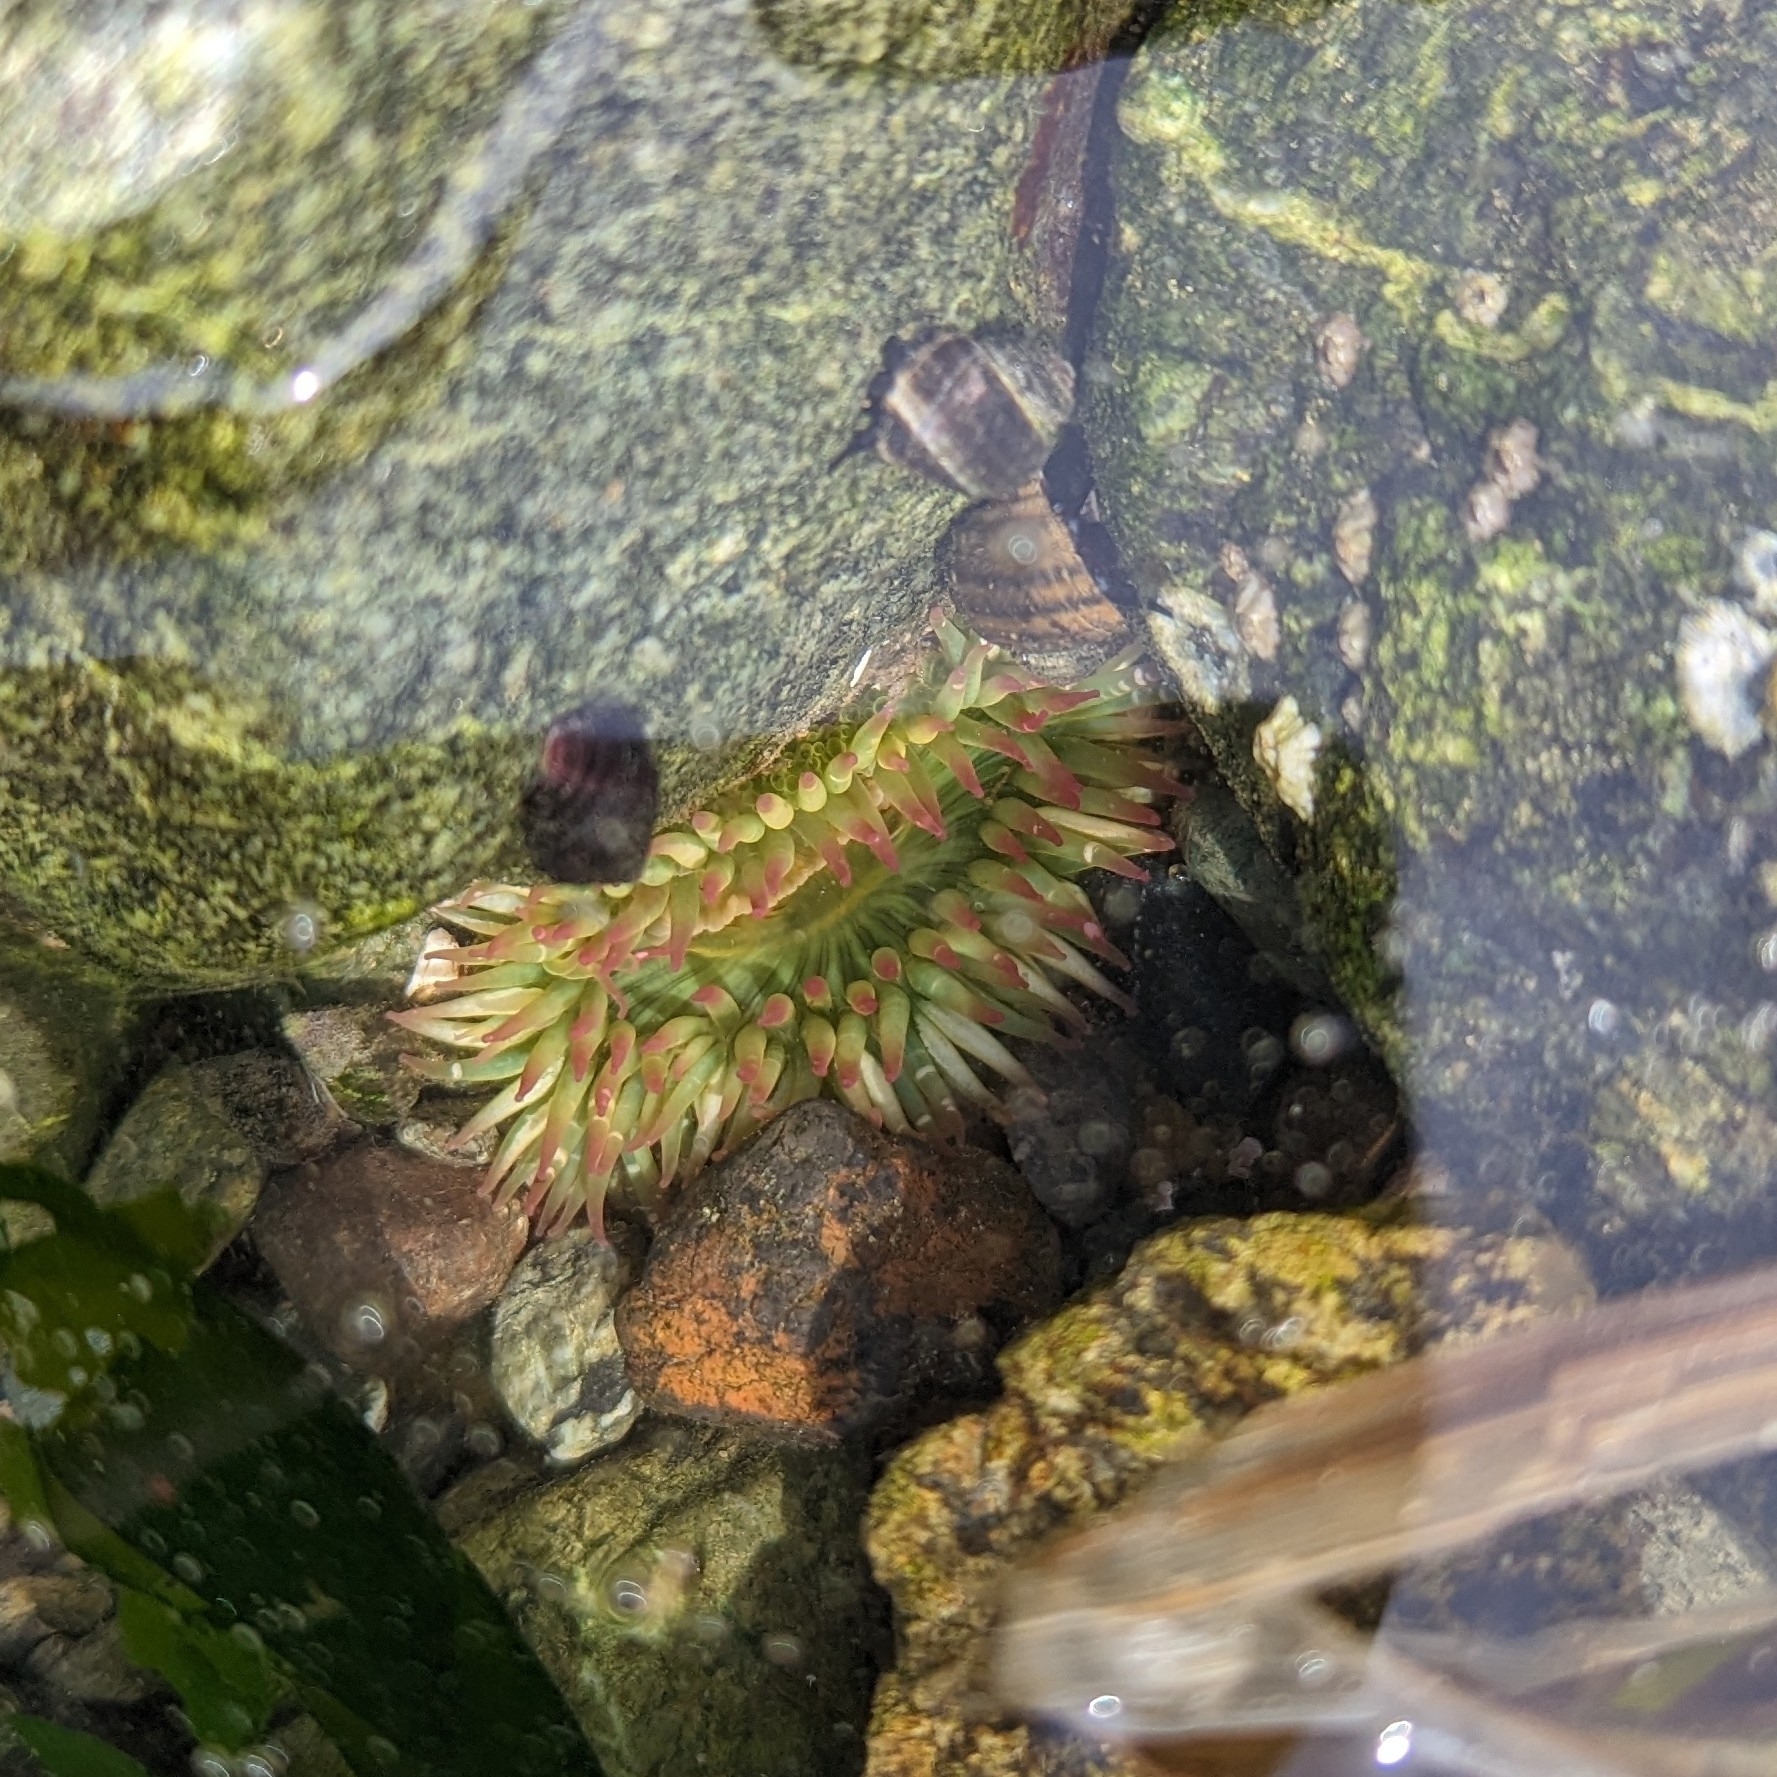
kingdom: Animalia
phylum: Cnidaria
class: Anthozoa
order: Actiniaria
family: Actiniidae
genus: Anthopleura
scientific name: Anthopleura elegantissima
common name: Clonal anemone
